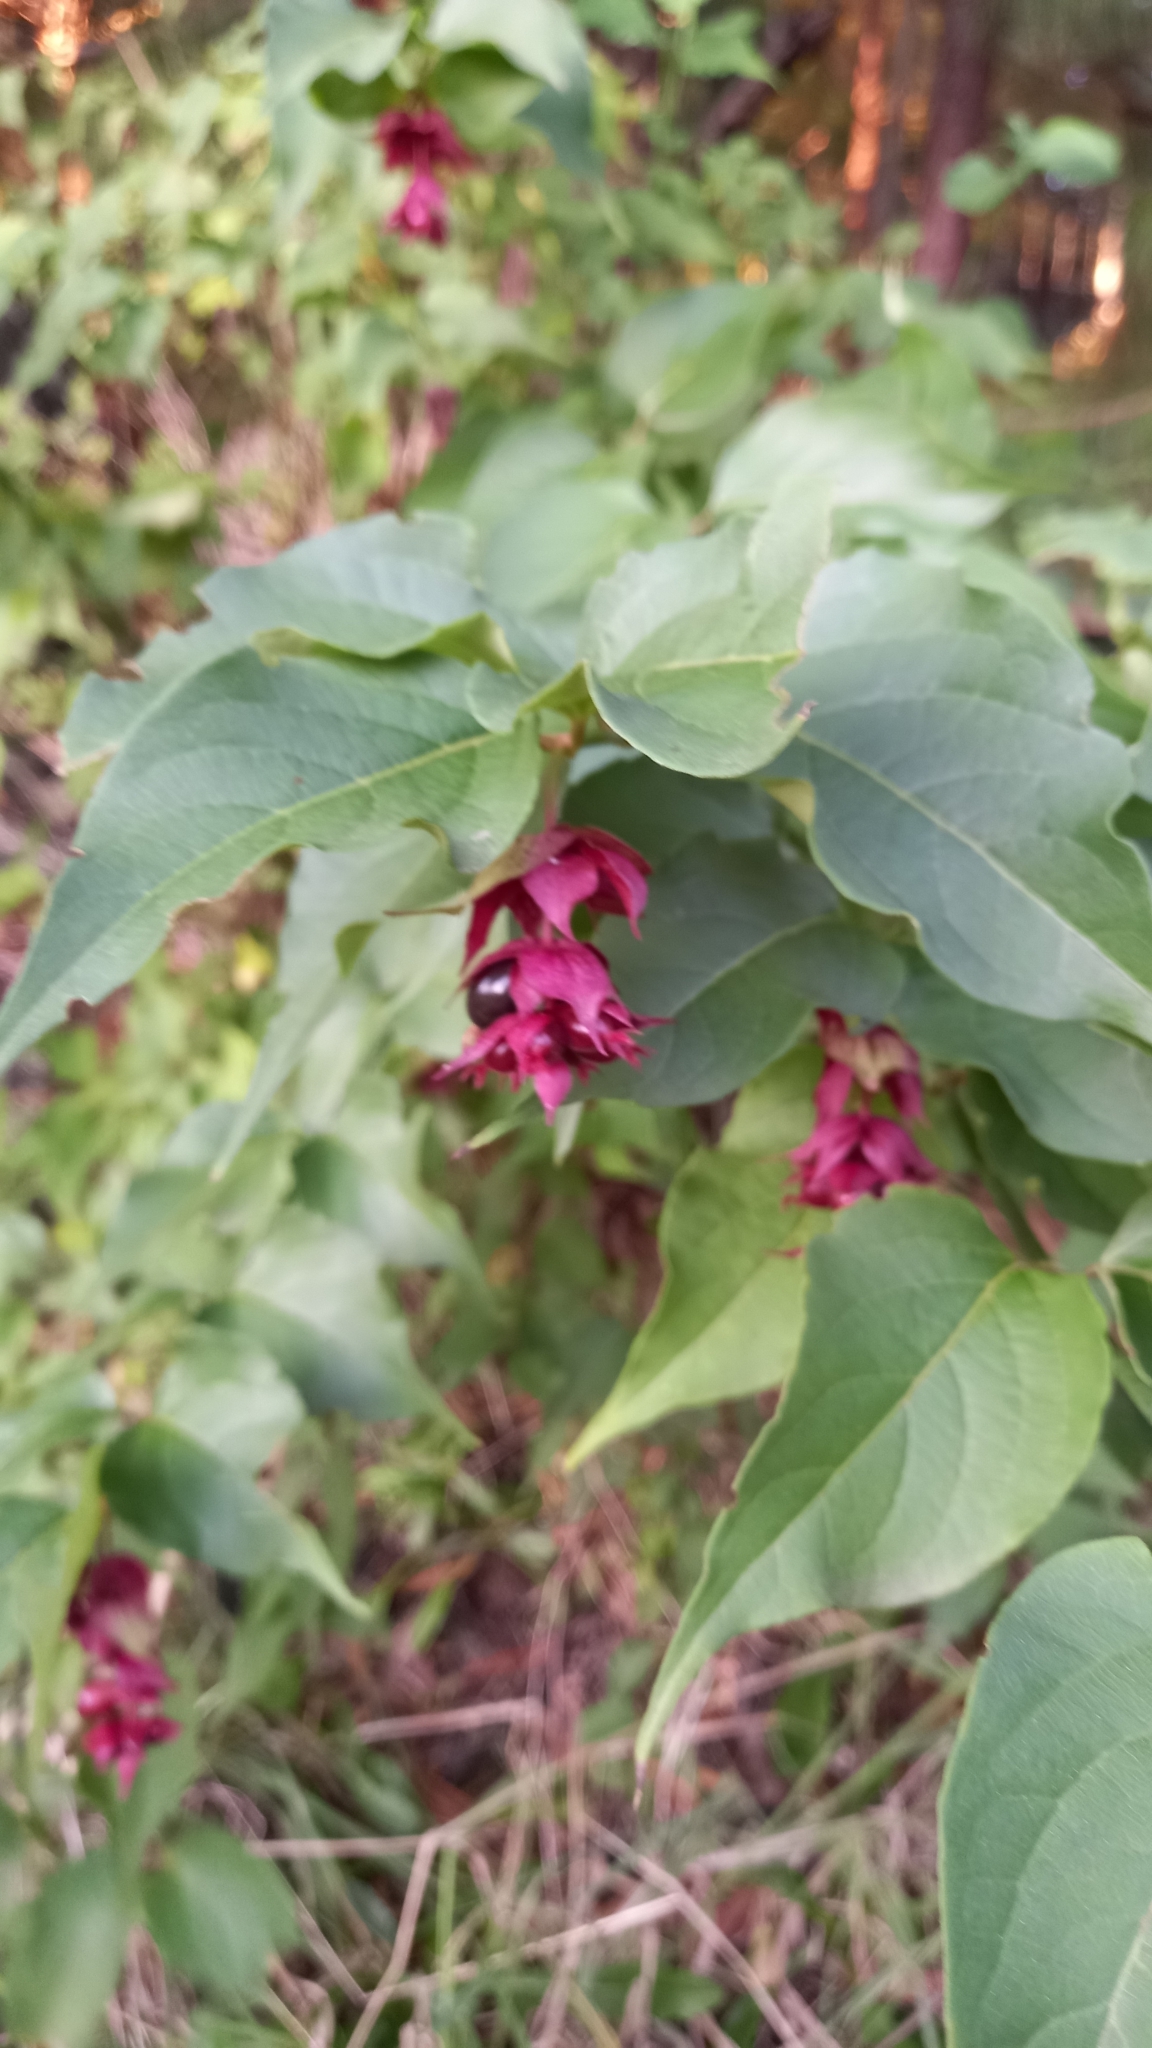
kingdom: Plantae
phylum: Tracheophyta
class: Magnoliopsida
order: Dipsacales
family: Caprifoliaceae
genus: Leycesteria
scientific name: Leycesteria formosa
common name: Himalayan honeysuckle
